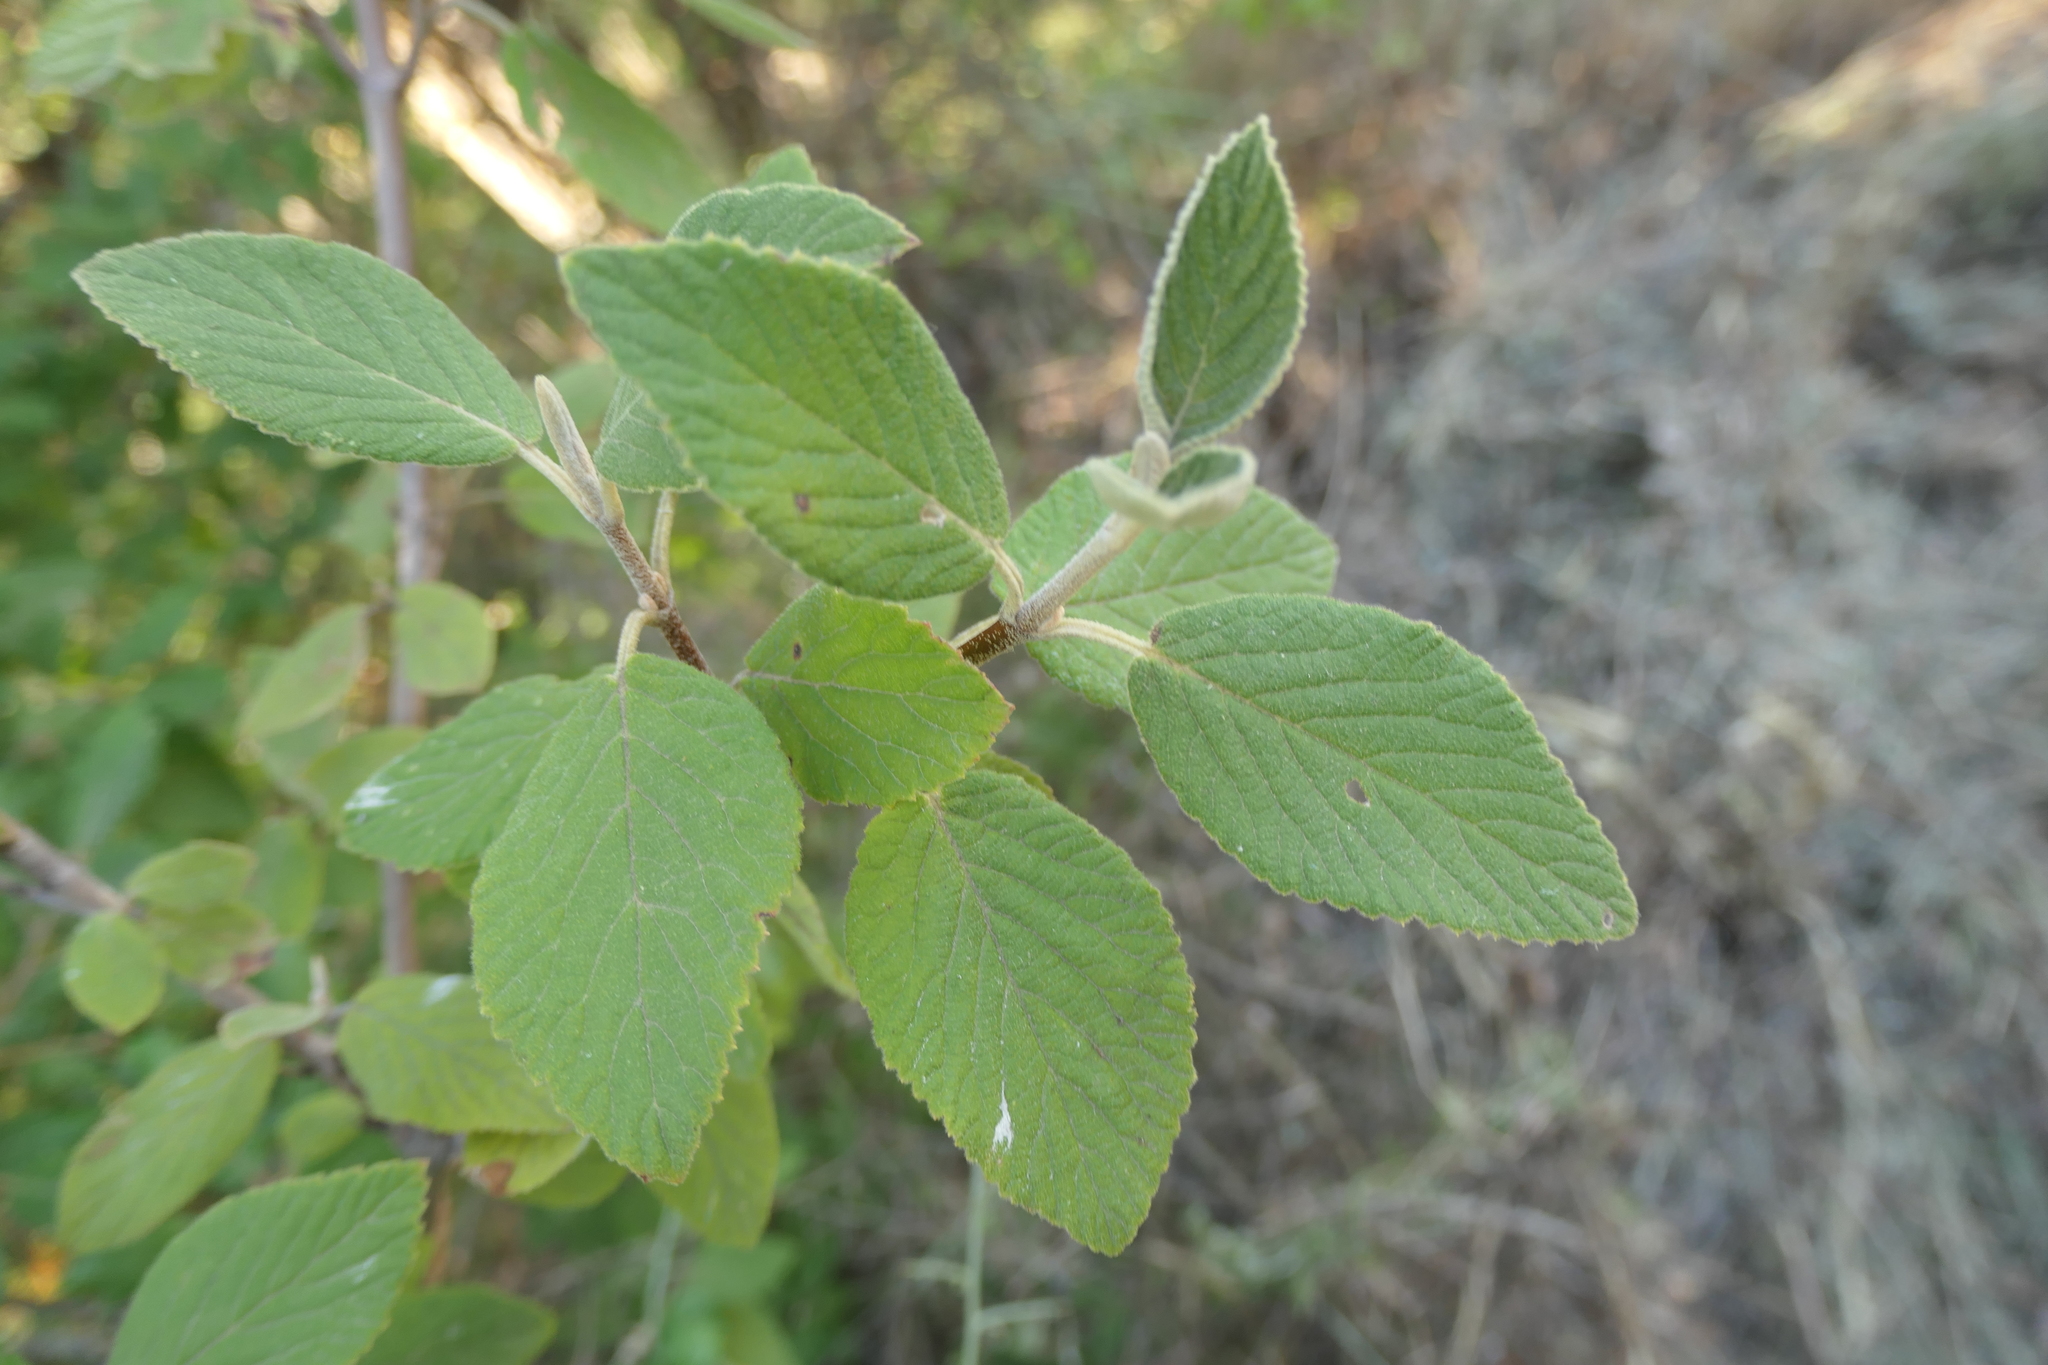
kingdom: Plantae
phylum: Tracheophyta
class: Magnoliopsida
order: Dipsacales
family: Viburnaceae
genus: Viburnum
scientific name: Viburnum lantana
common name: Wayfaring tree
